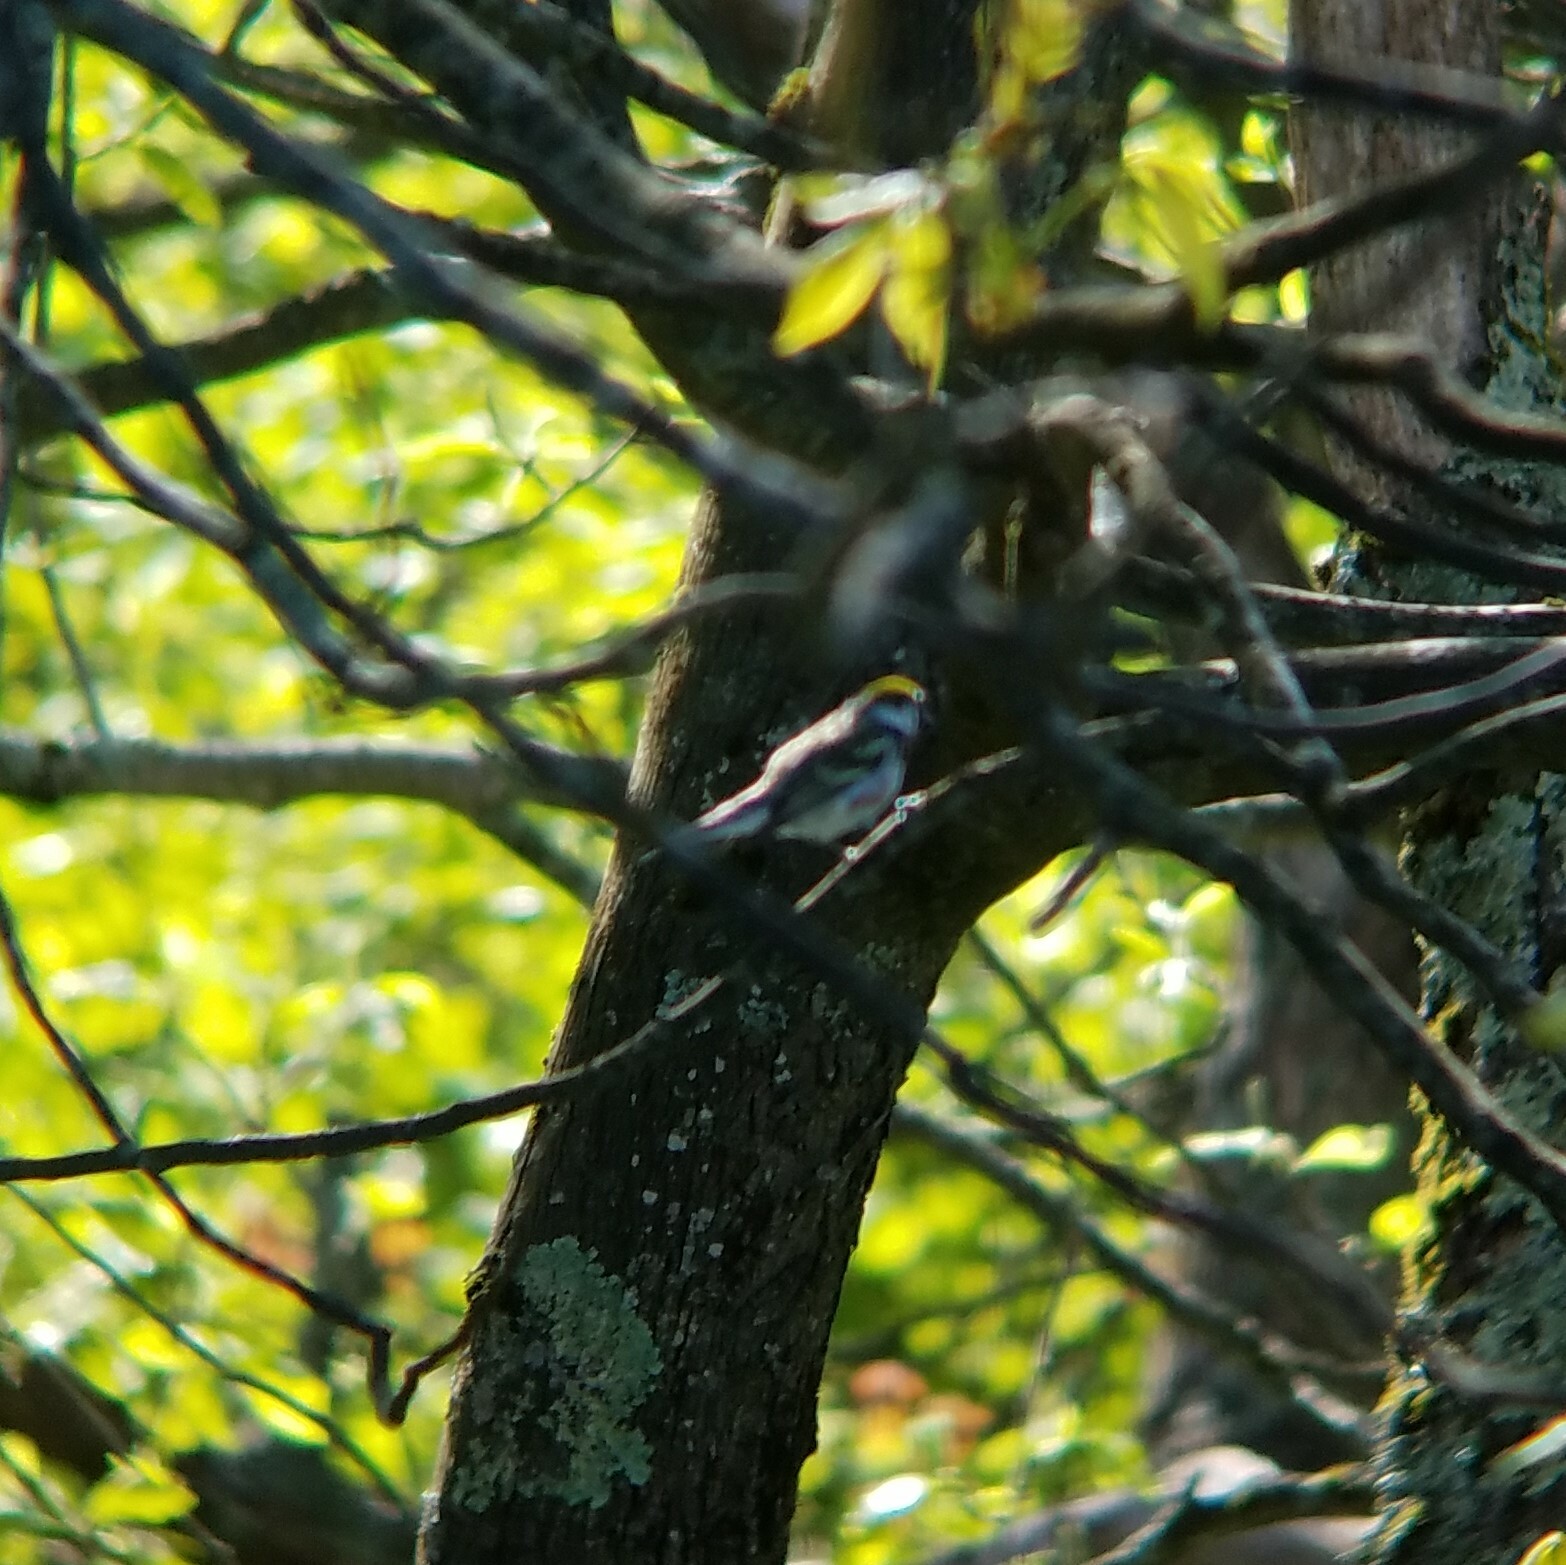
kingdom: Animalia
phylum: Chordata
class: Aves
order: Passeriformes
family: Parulidae
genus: Setophaga
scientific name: Setophaga pensylvanica
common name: Chestnut-sided warbler
